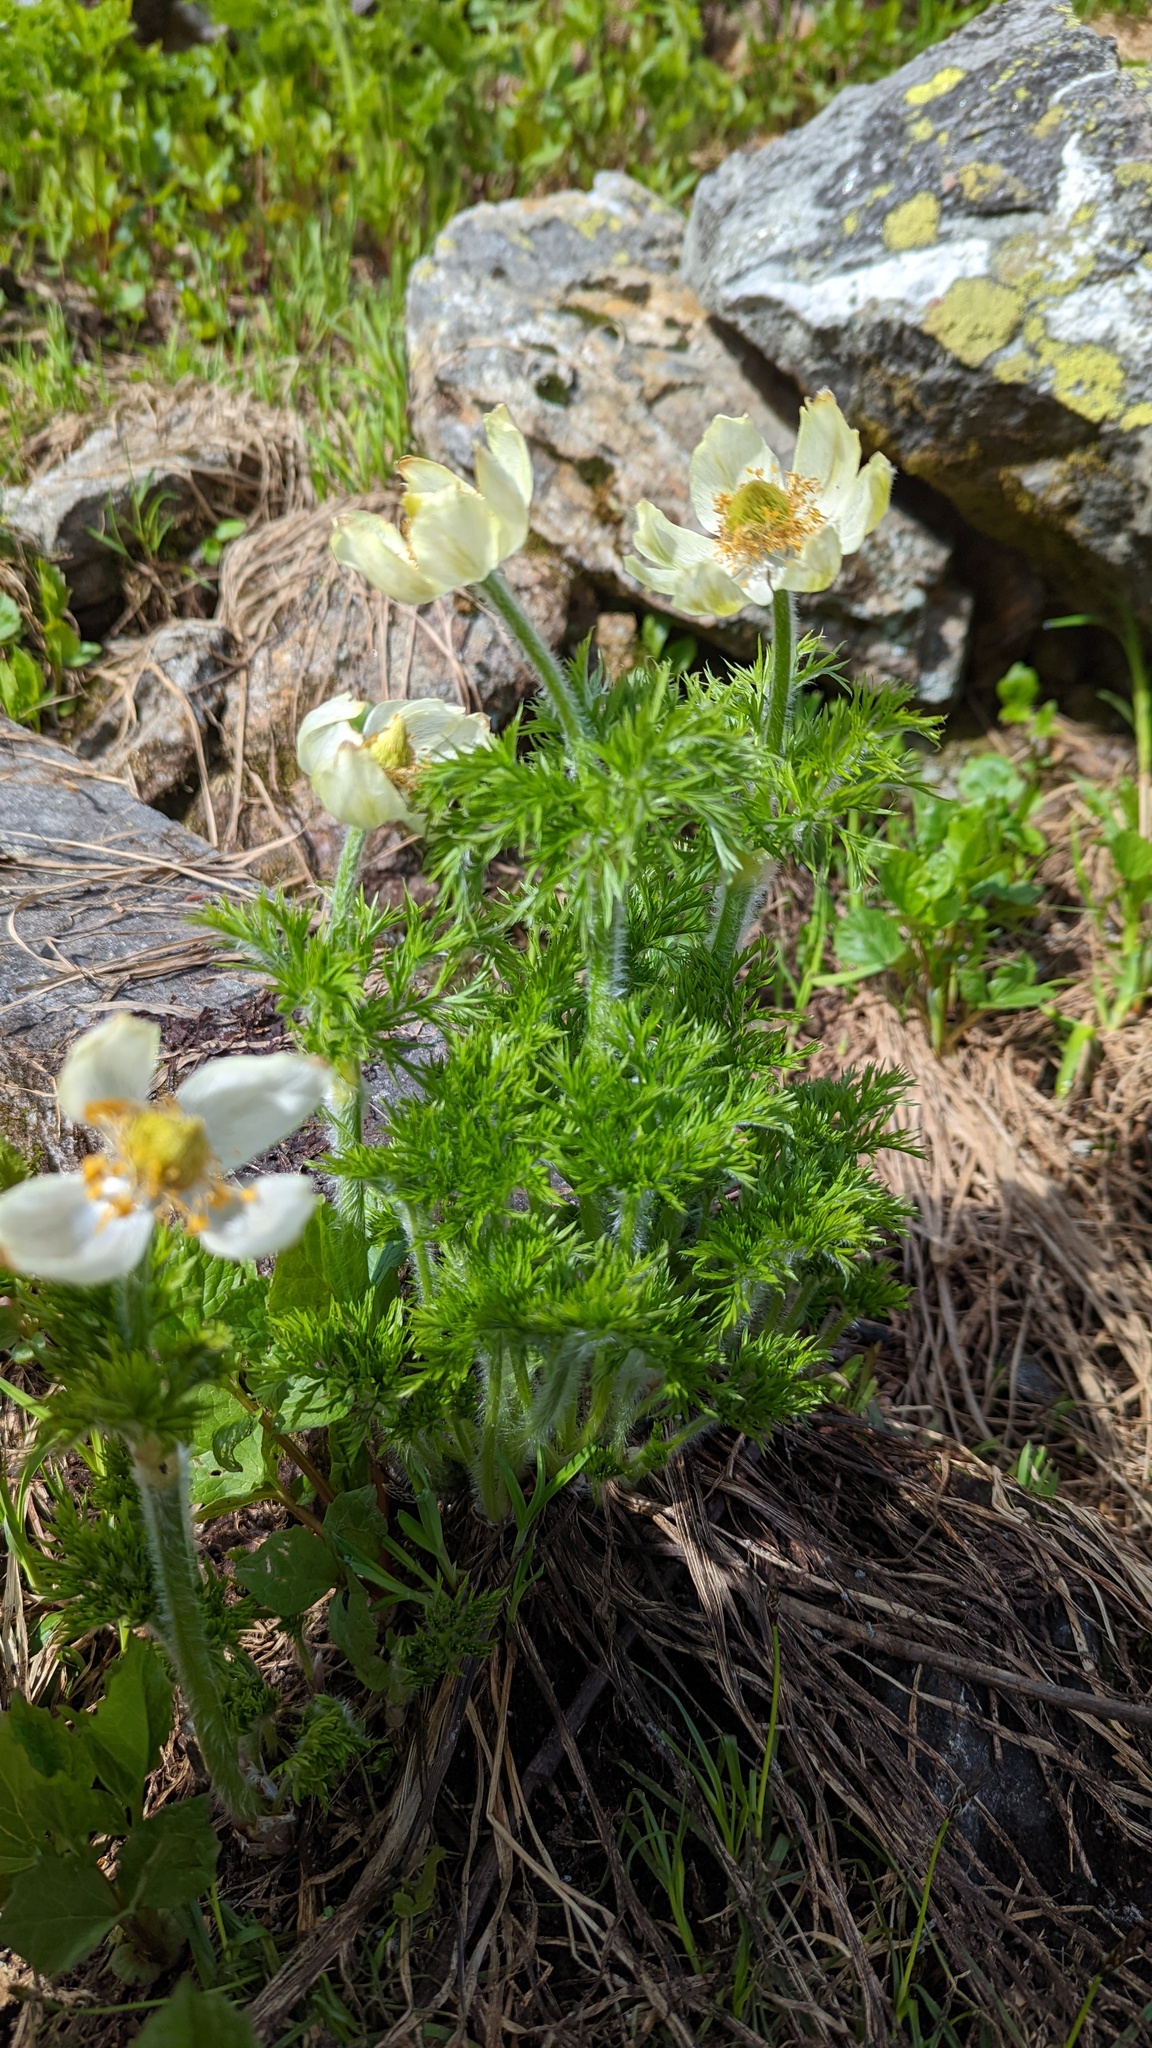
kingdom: Plantae
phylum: Tracheophyta
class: Magnoliopsida
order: Ranunculales
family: Ranunculaceae
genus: Pulsatilla
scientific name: Pulsatilla occidentalis
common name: Mountain pasqueflower
